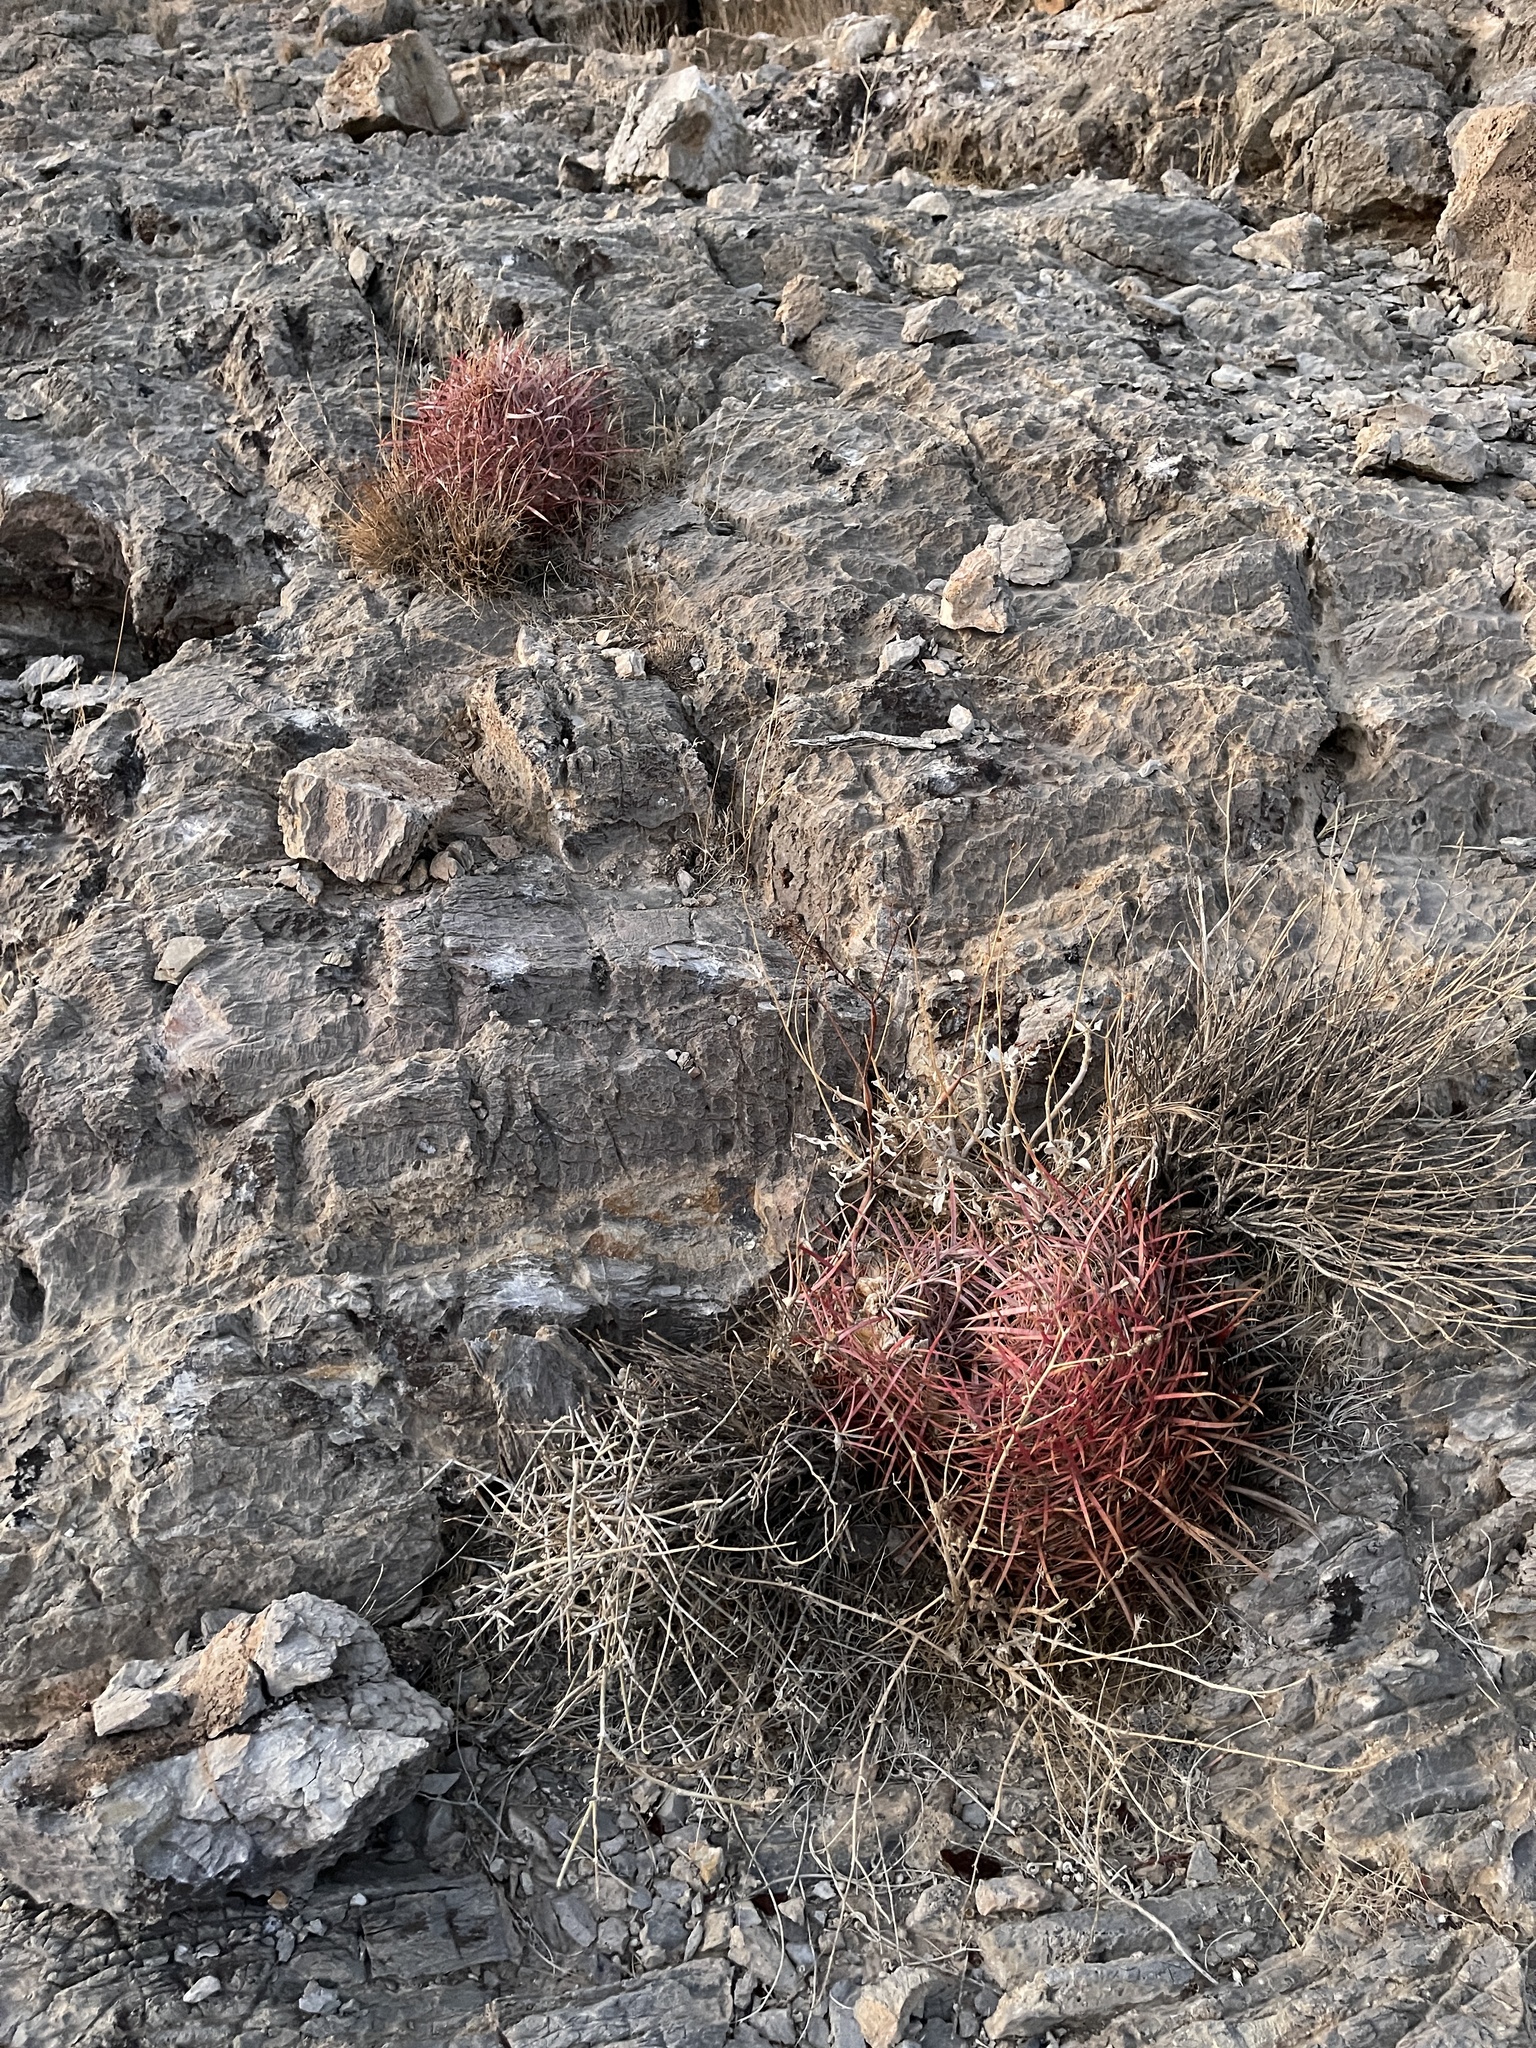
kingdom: Plantae
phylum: Tracheophyta
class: Magnoliopsida
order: Caryophyllales
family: Cactaceae
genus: Ferocactus
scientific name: Ferocactus cylindraceus
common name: California barrel cactus
